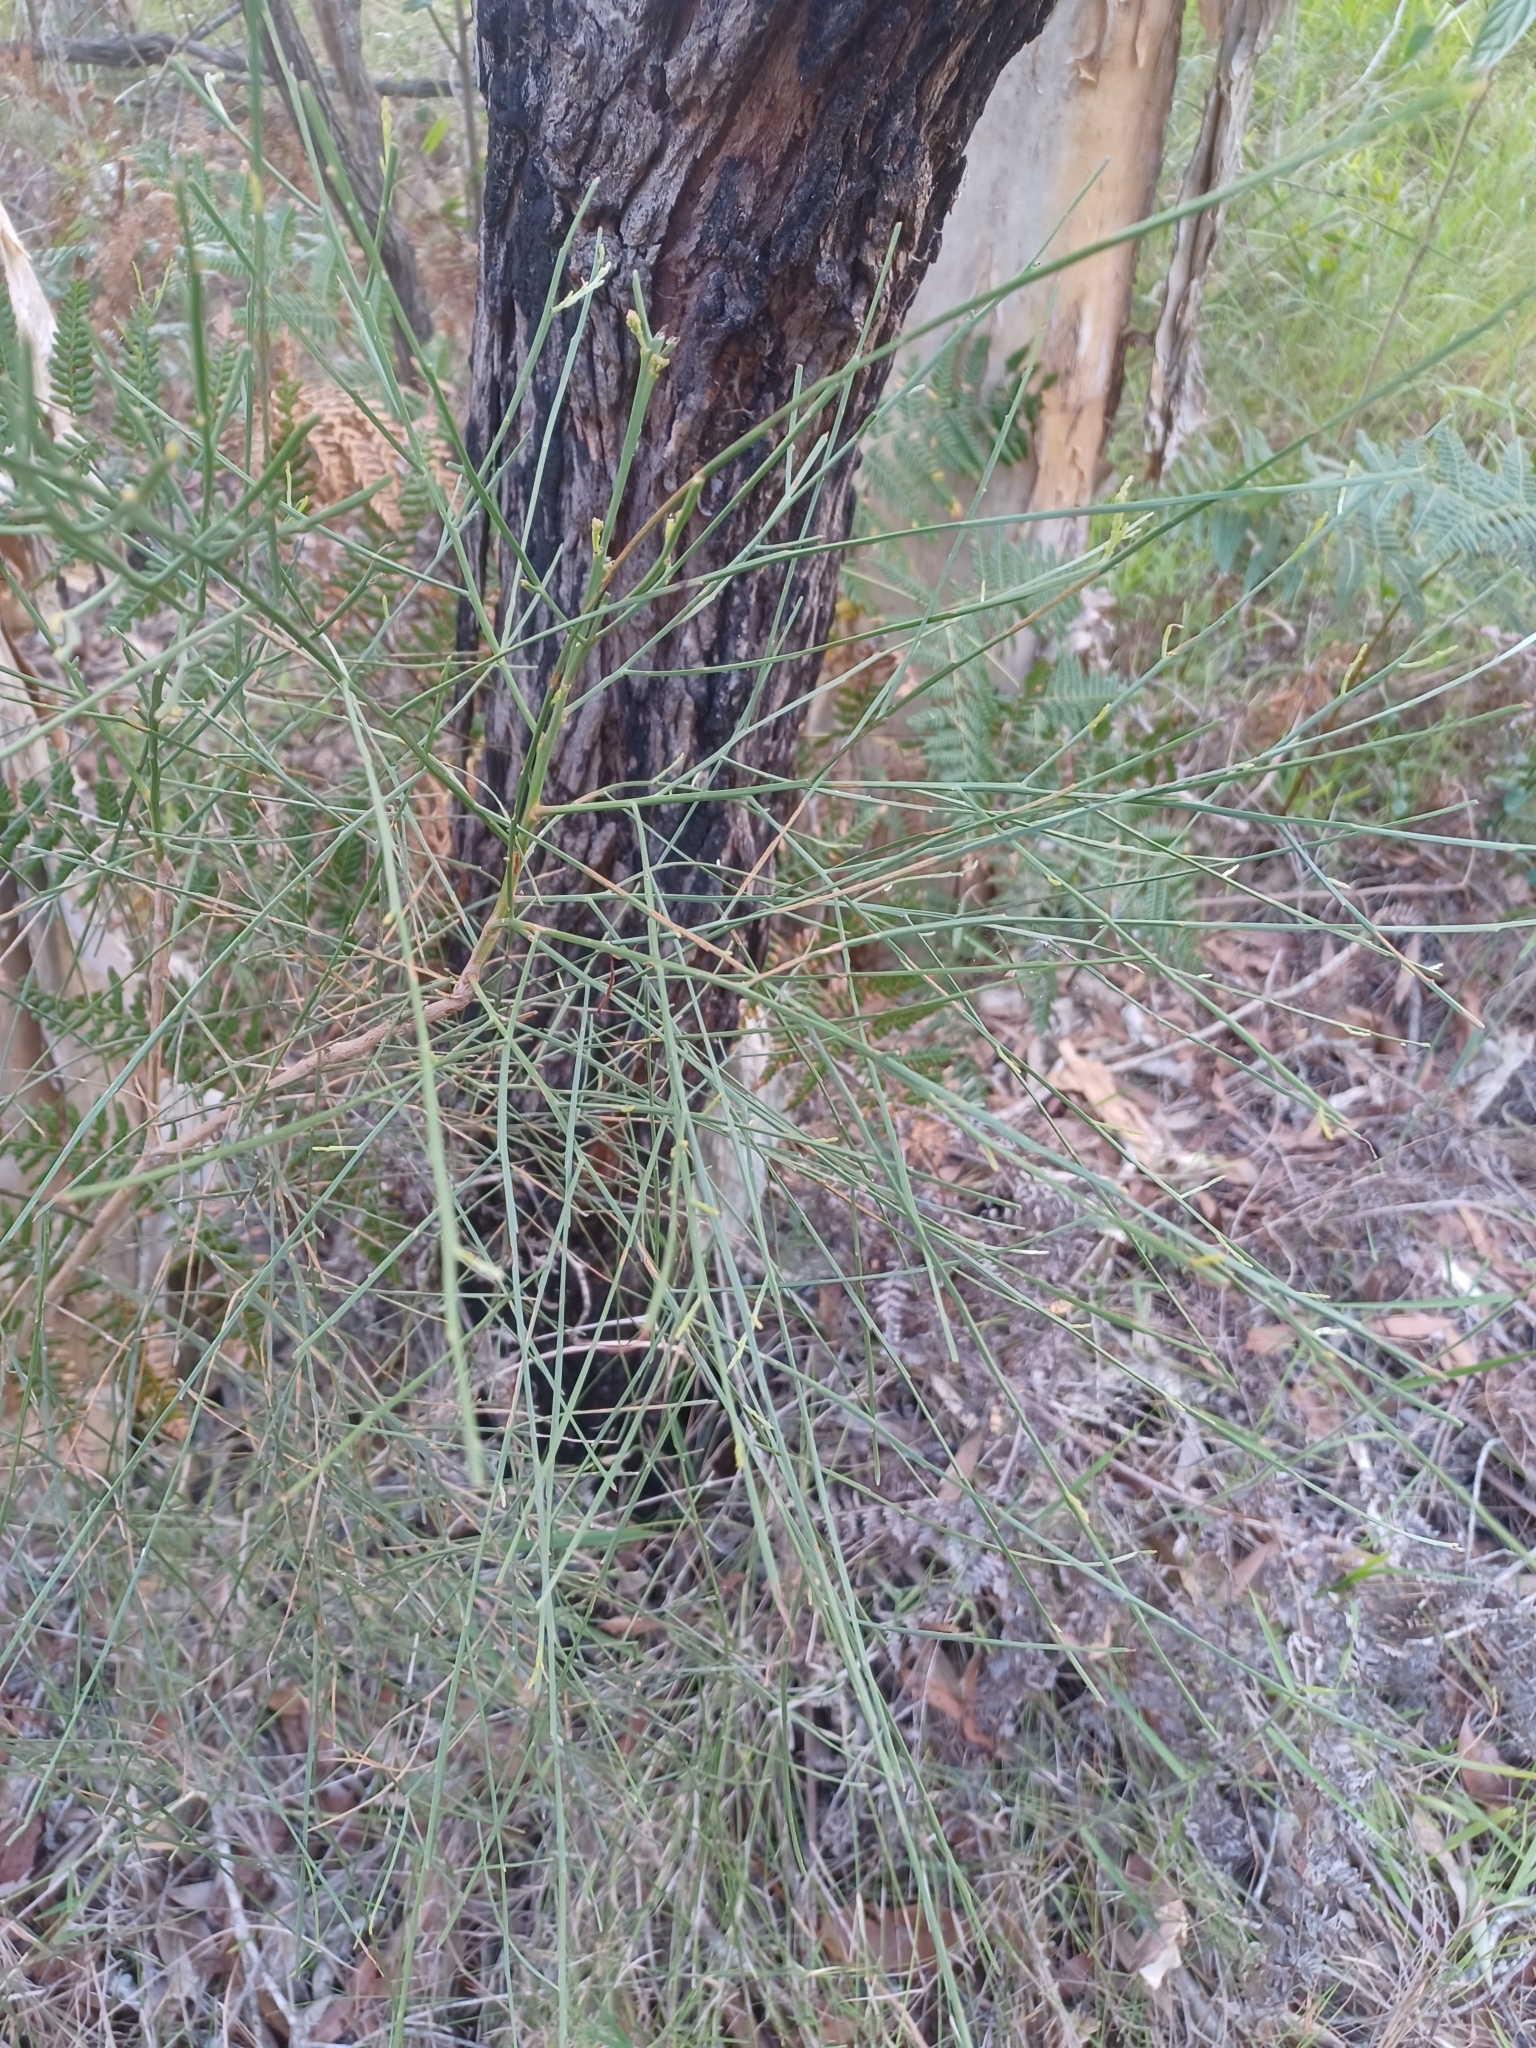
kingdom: Plantae
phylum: Tracheophyta
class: Magnoliopsida
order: Fabales
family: Fabaceae
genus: Jacksonia
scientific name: Jacksonia scoparia
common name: Dogwood
